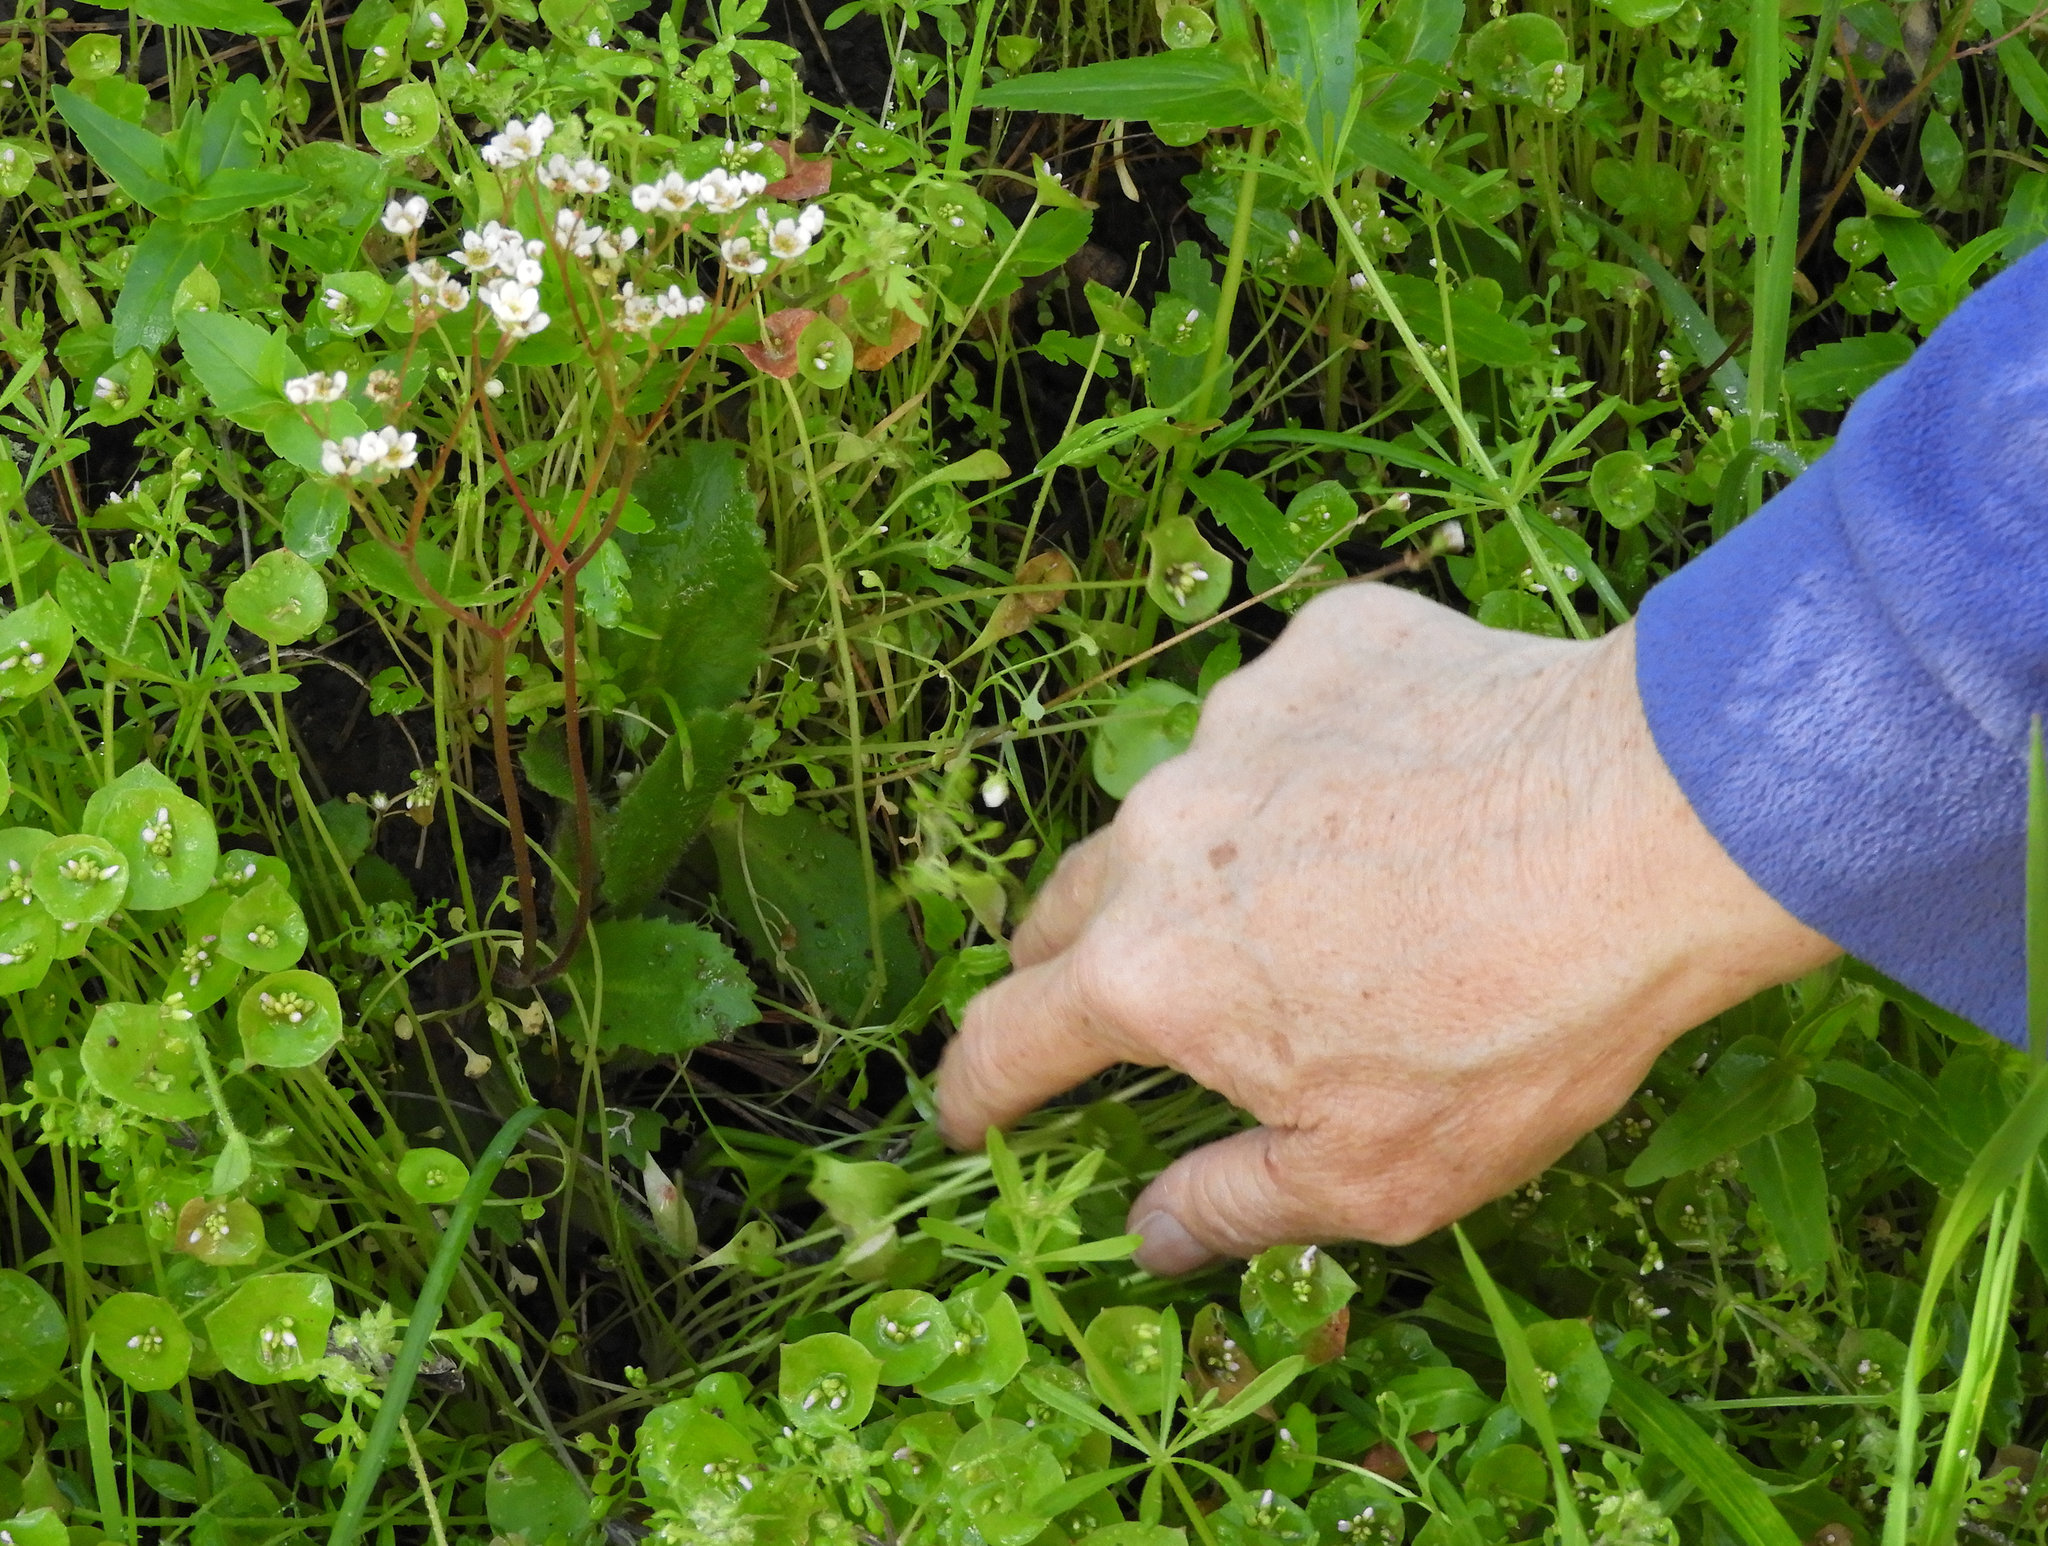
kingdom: Plantae
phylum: Tracheophyta
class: Magnoliopsida
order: Saxifragales
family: Saxifragaceae
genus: Micranthes
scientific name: Micranthes californica
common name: California saxifrage
